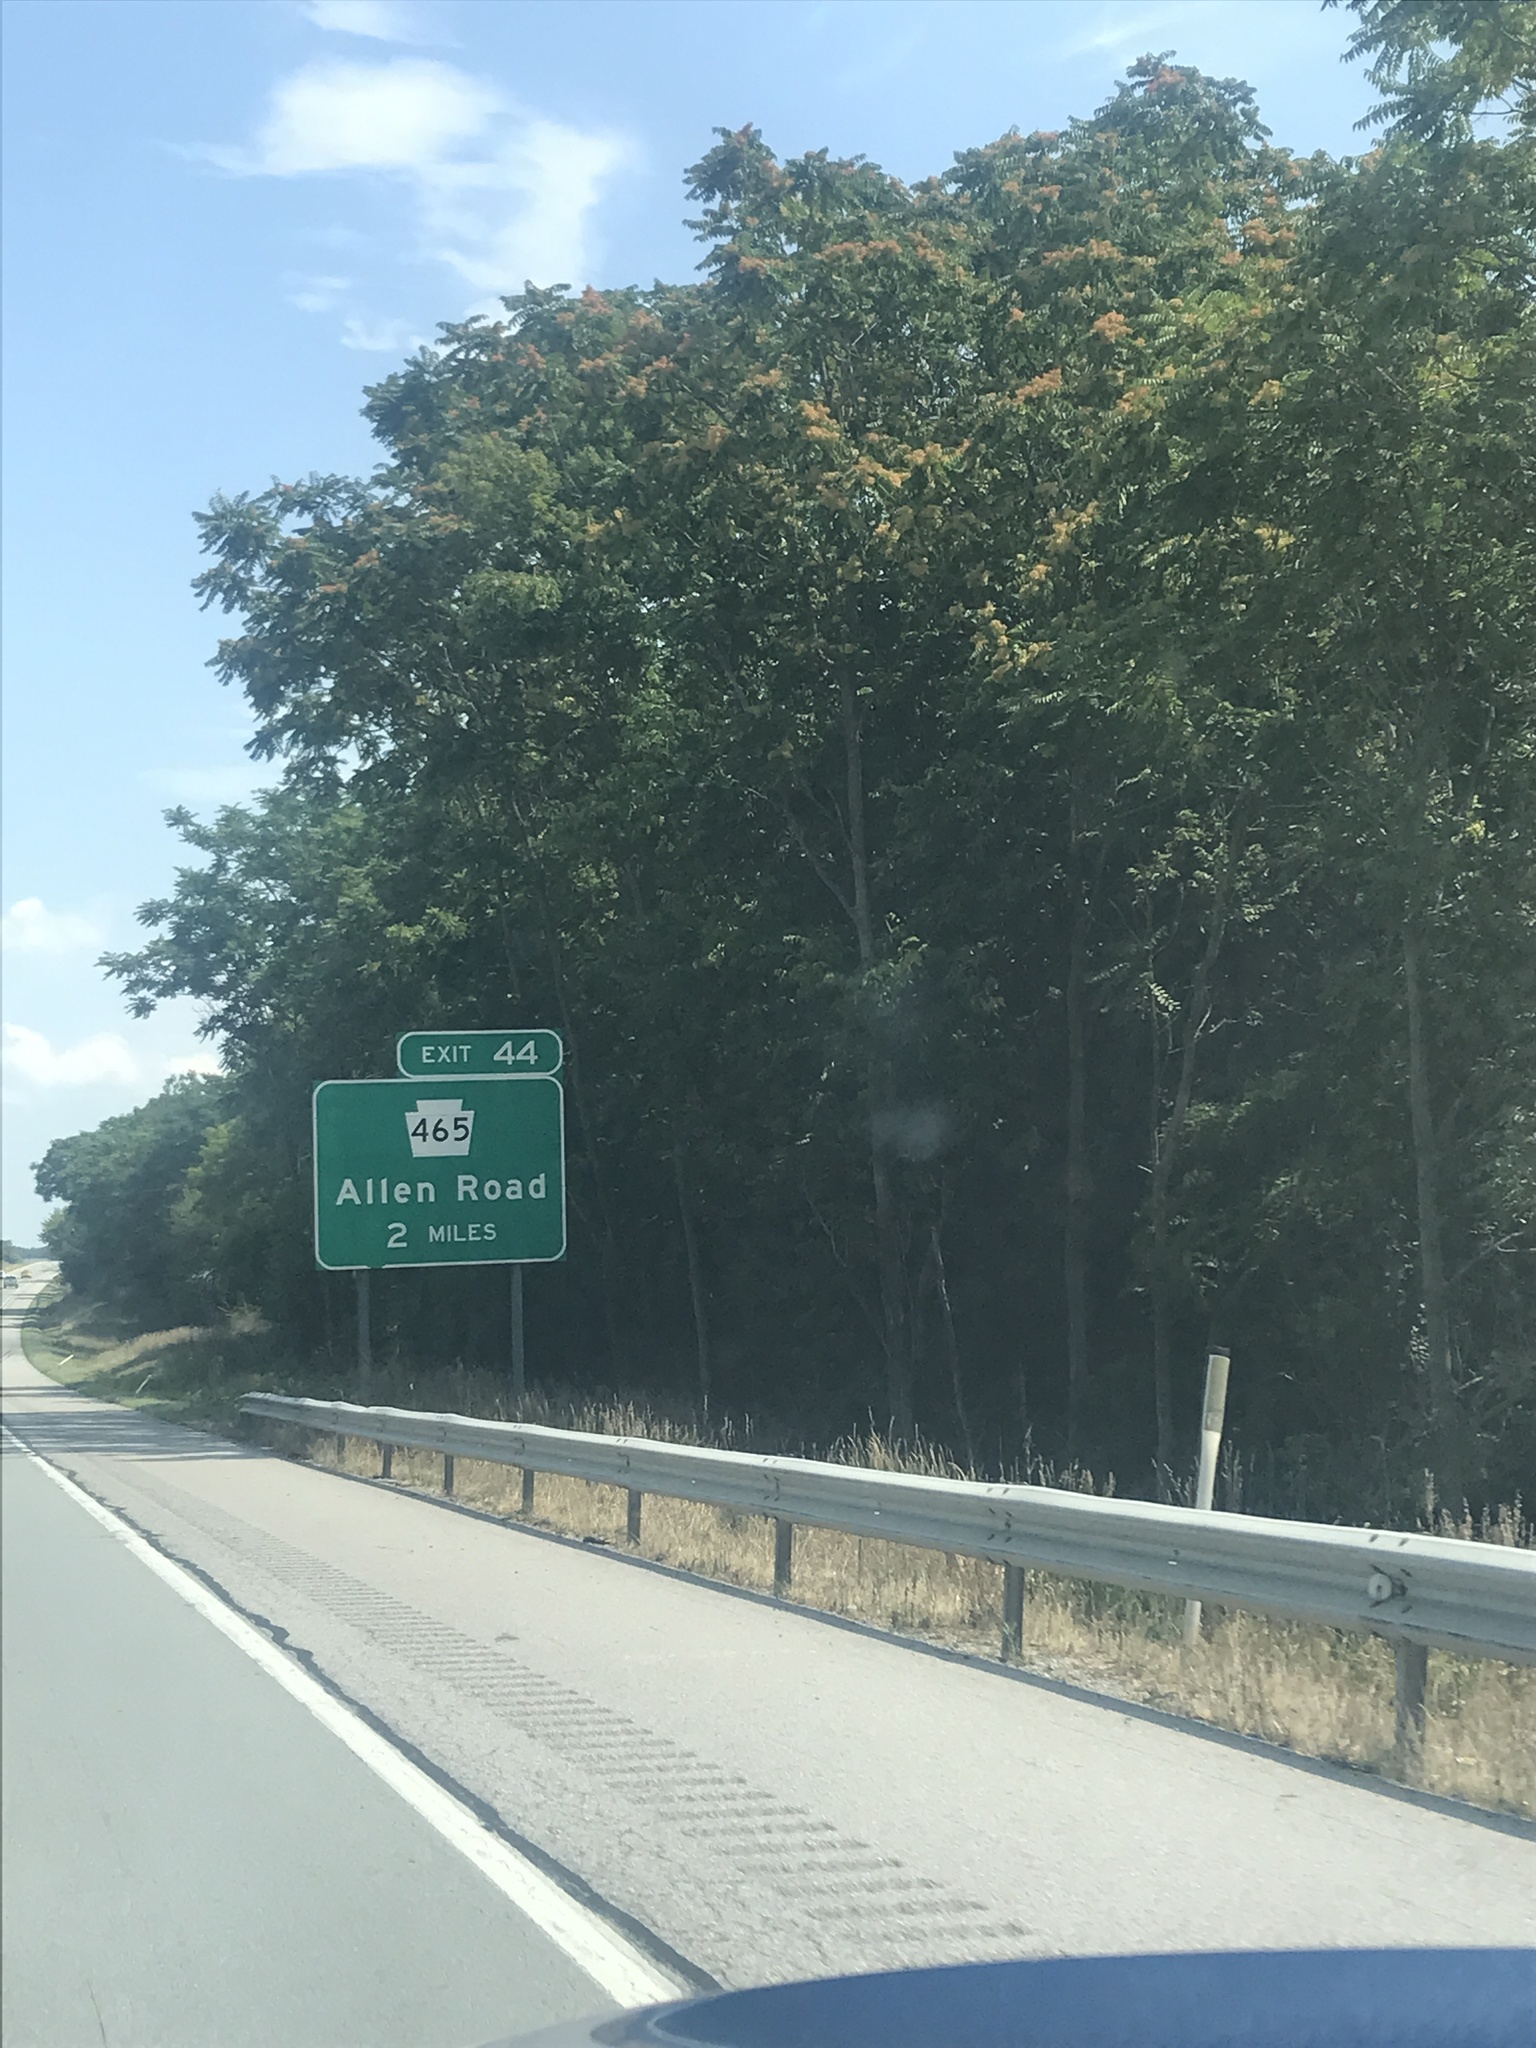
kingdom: Plantae
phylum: Tracheophyta
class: Magnoliopsida
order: Sapindales
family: Simaroubaceae
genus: Ailanthus
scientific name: Ailanthus altissima
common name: Tree-of-heaven
